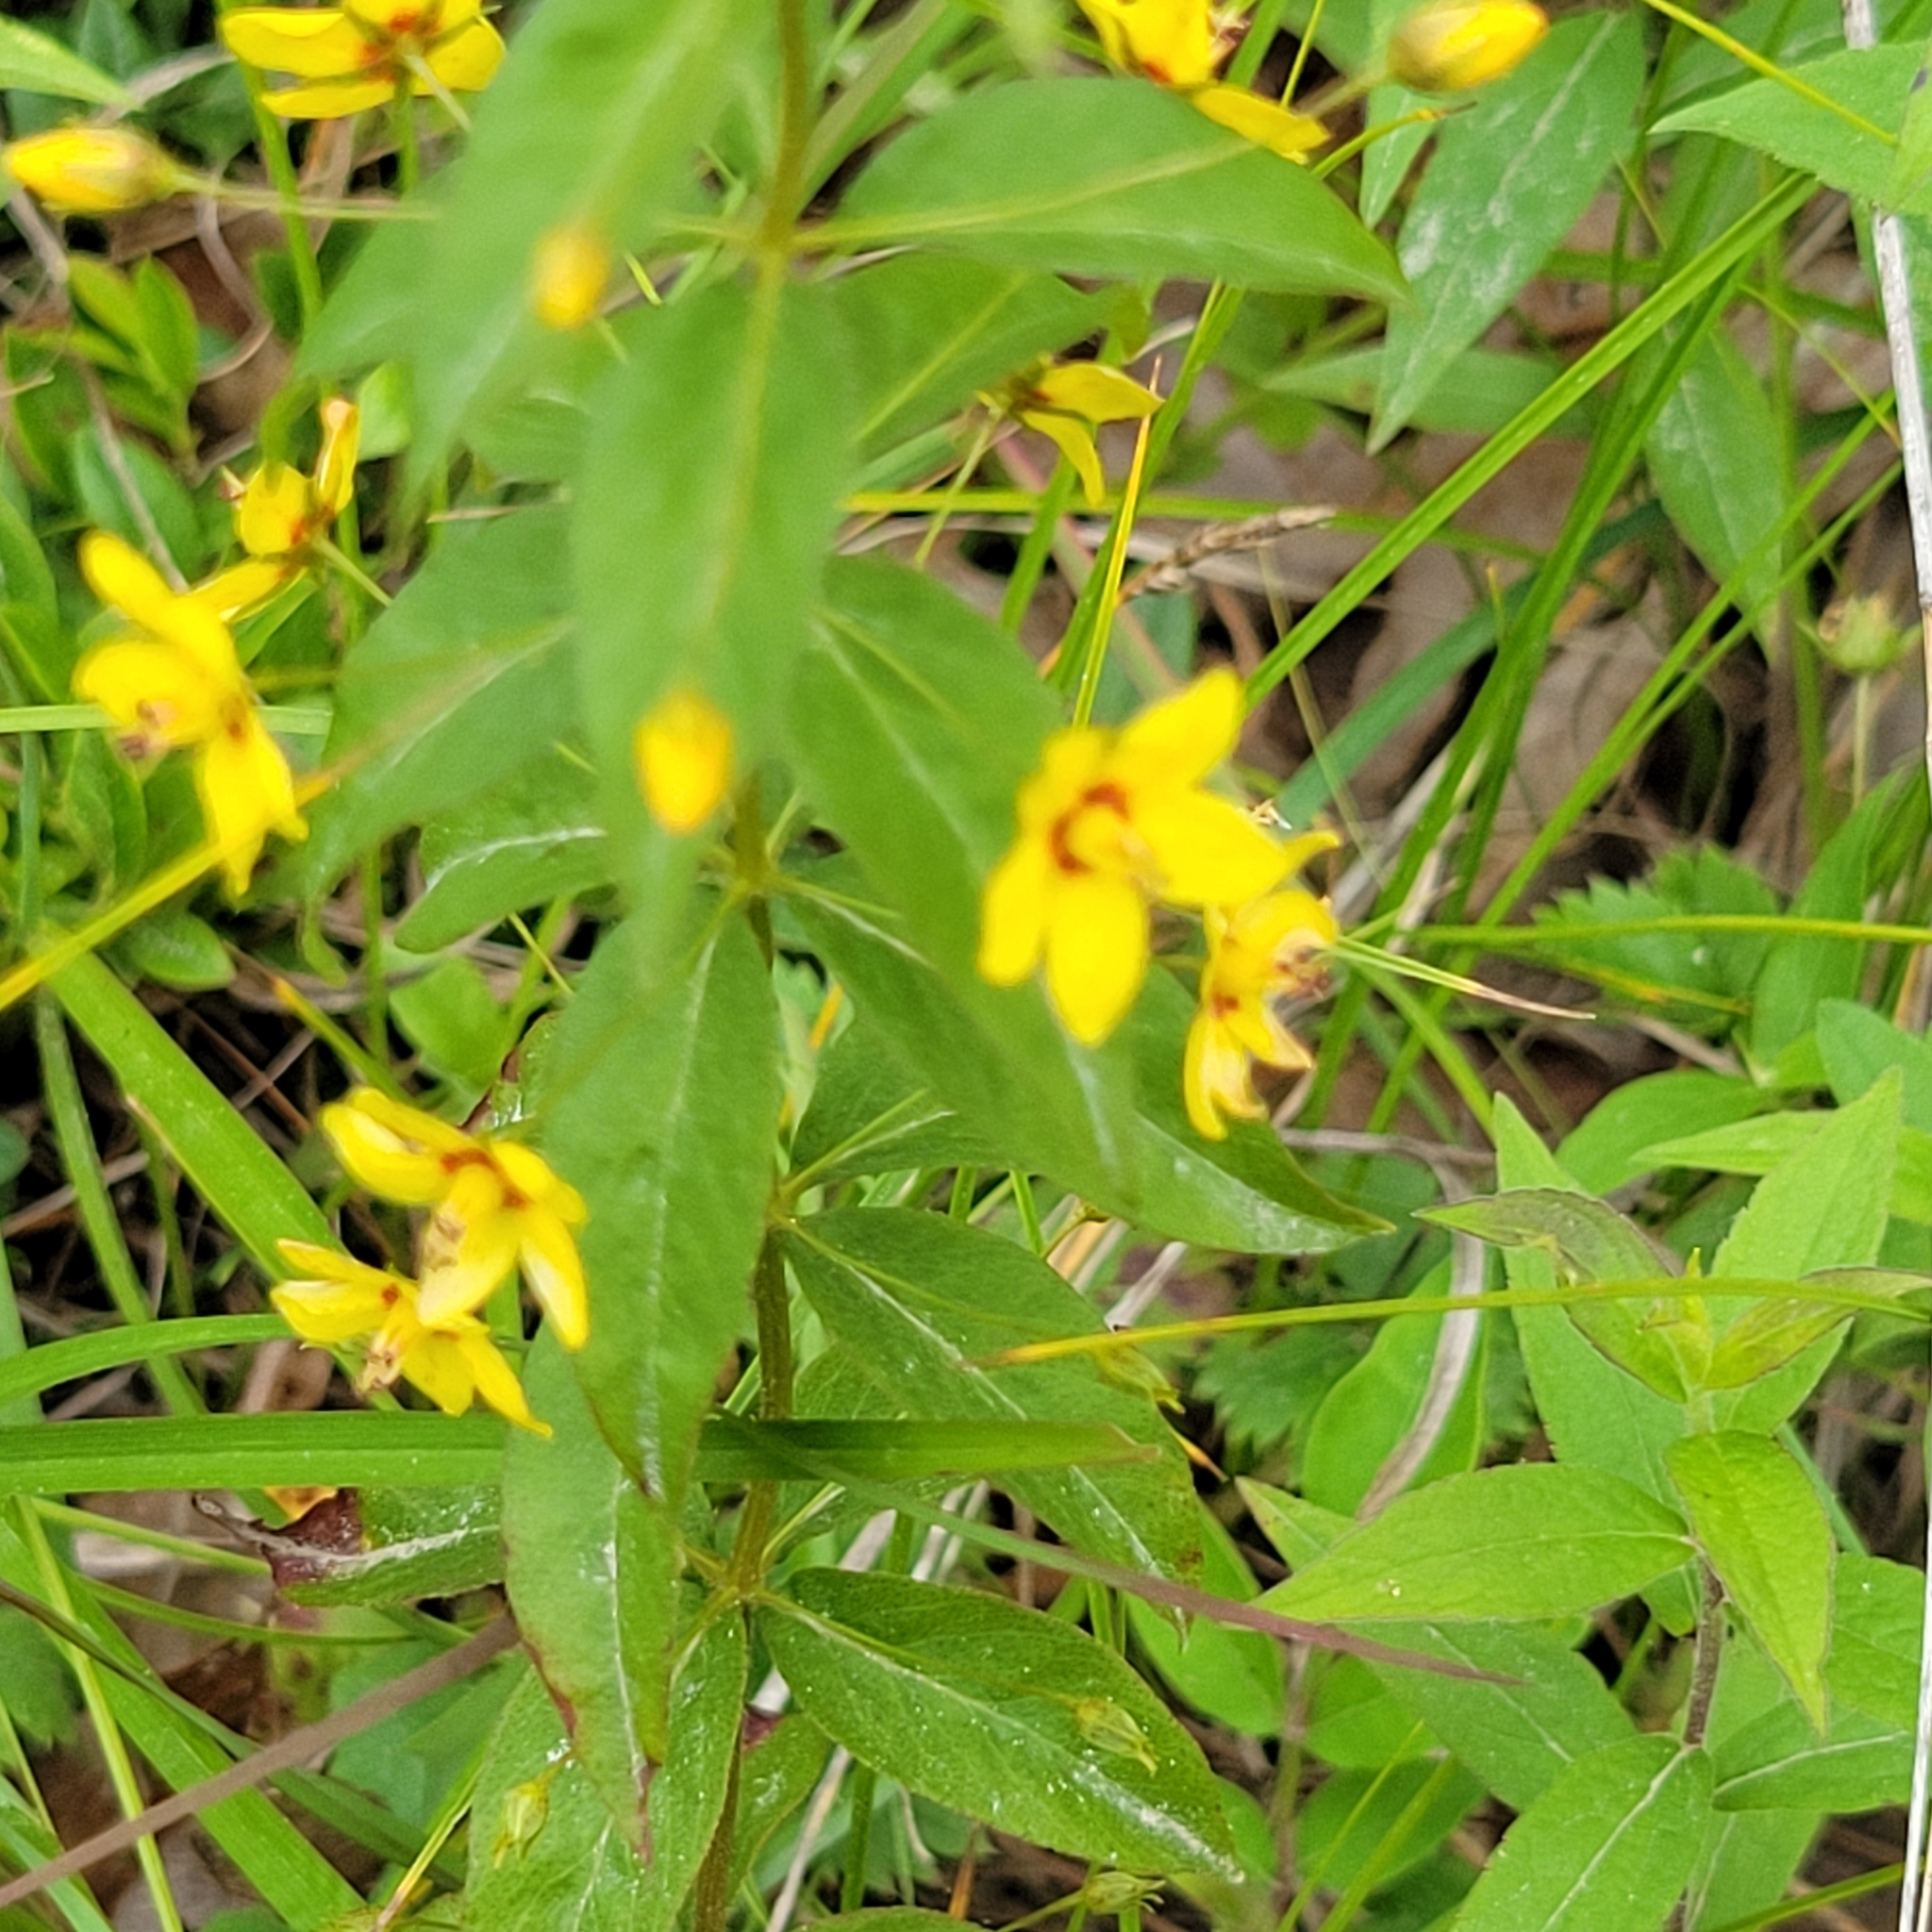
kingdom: Plantae
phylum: Tracheophyta
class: Magnoliopsida
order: Ericales
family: Primulaceae
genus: Lysimachia
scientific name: Lysimachia quadrifolia
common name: Whorled loosestrife
